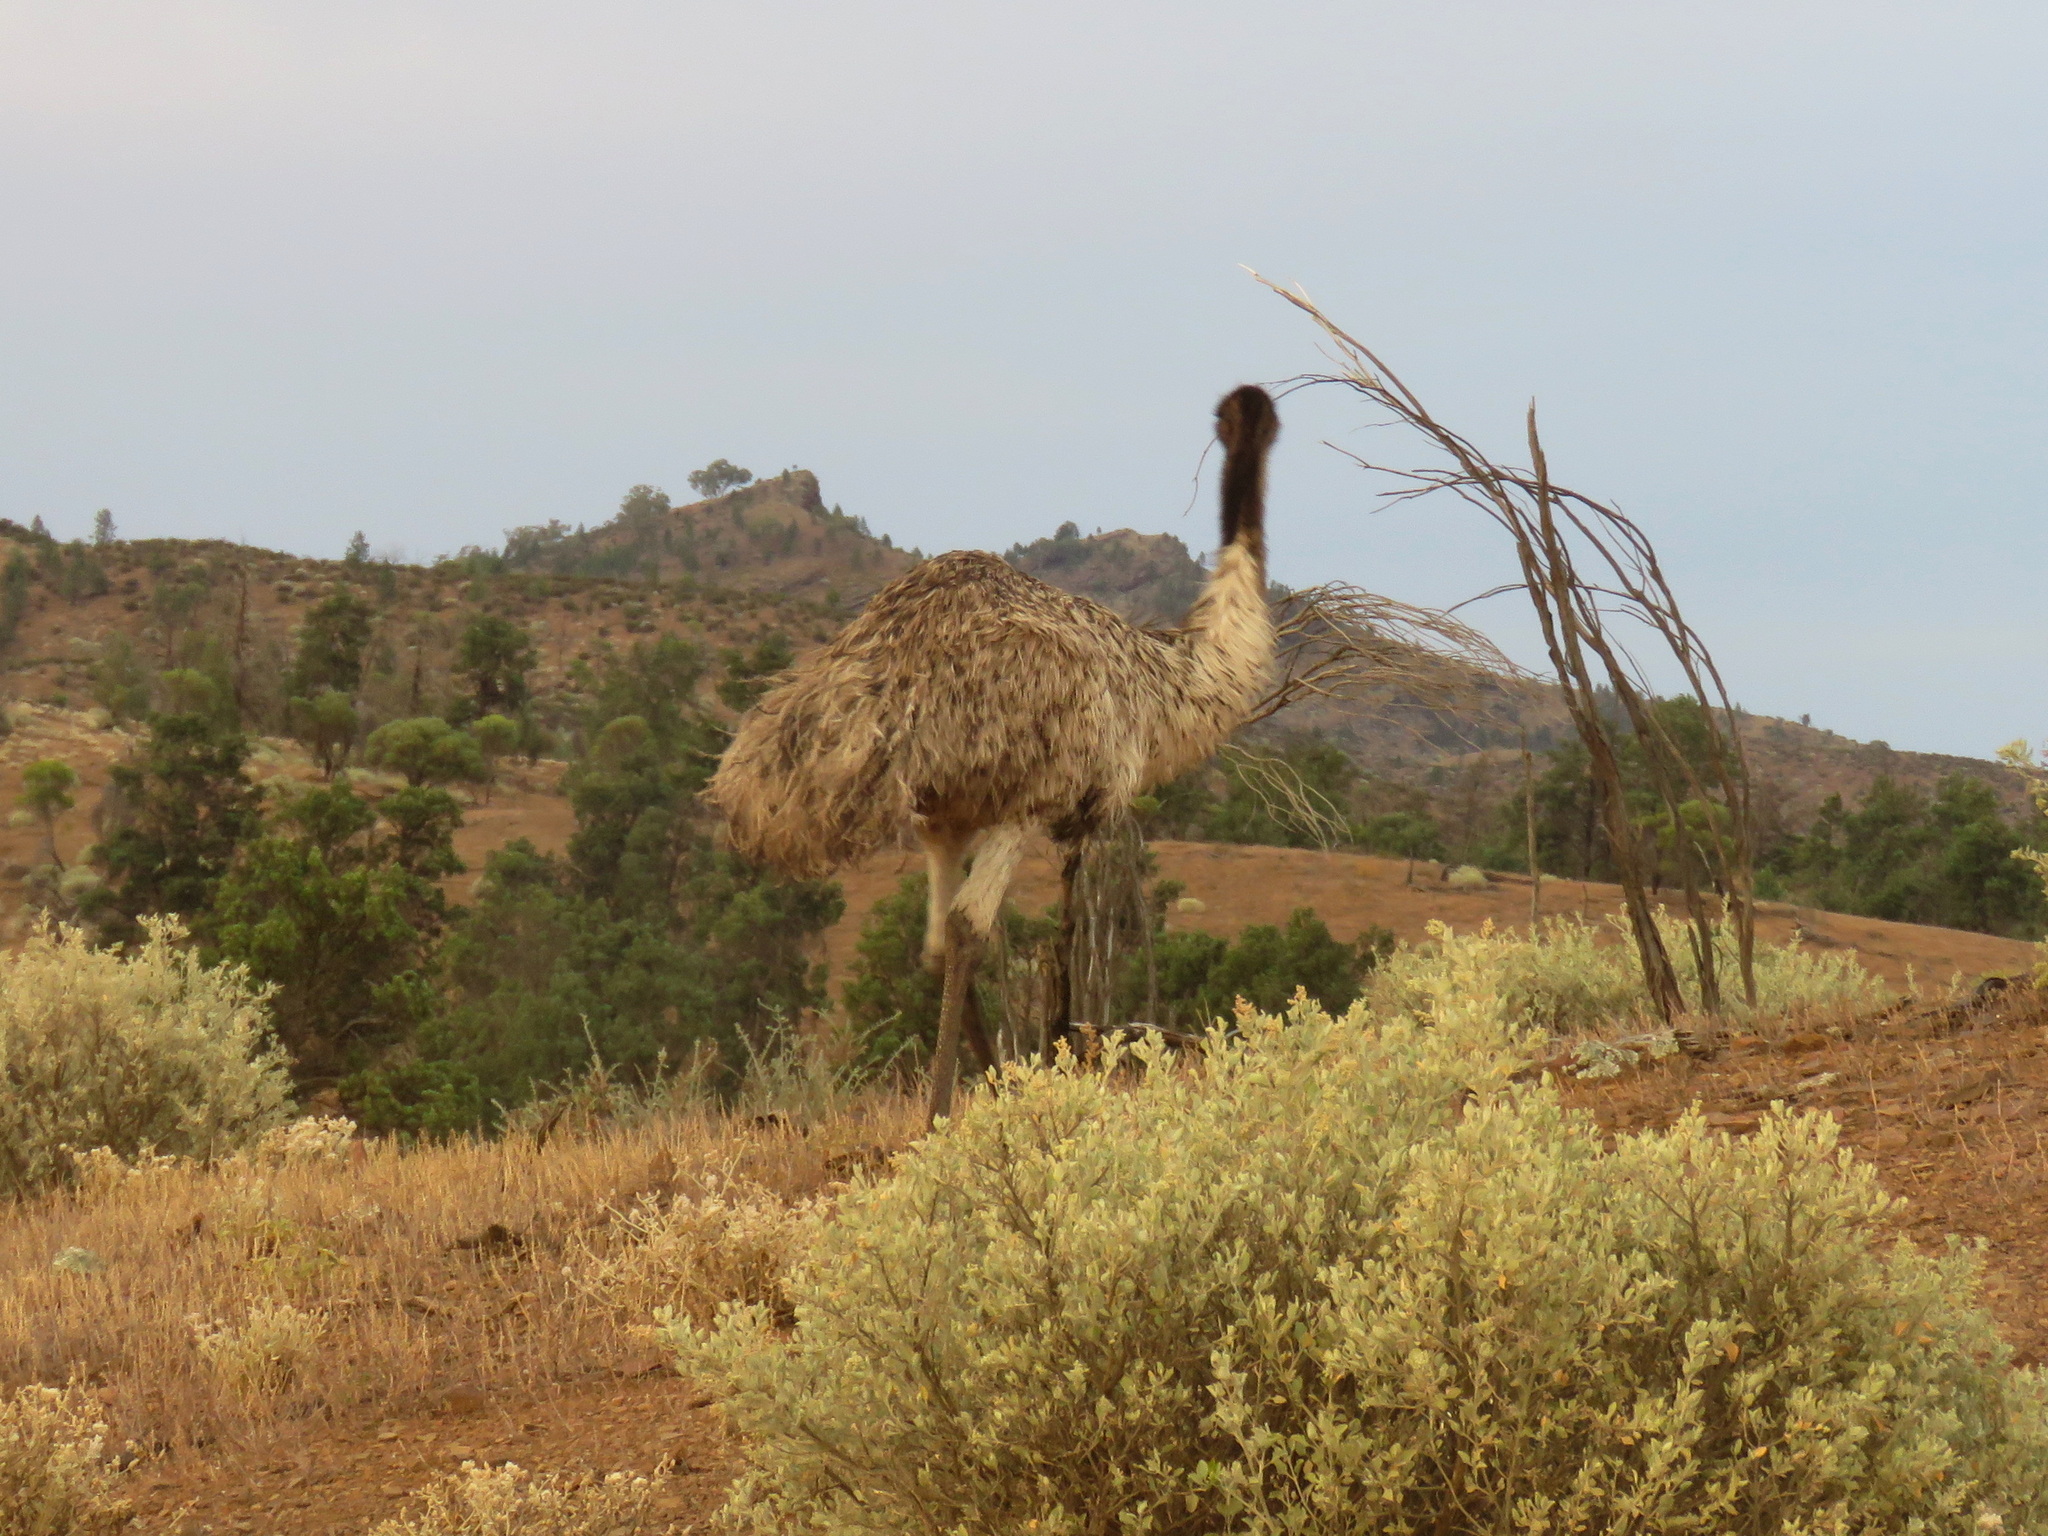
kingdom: Animalia
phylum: Chordata
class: Aves
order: Casuariiformes
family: Dromaiidae
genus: Dromaius
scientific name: Dromaius novaehollandiae
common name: Emu
